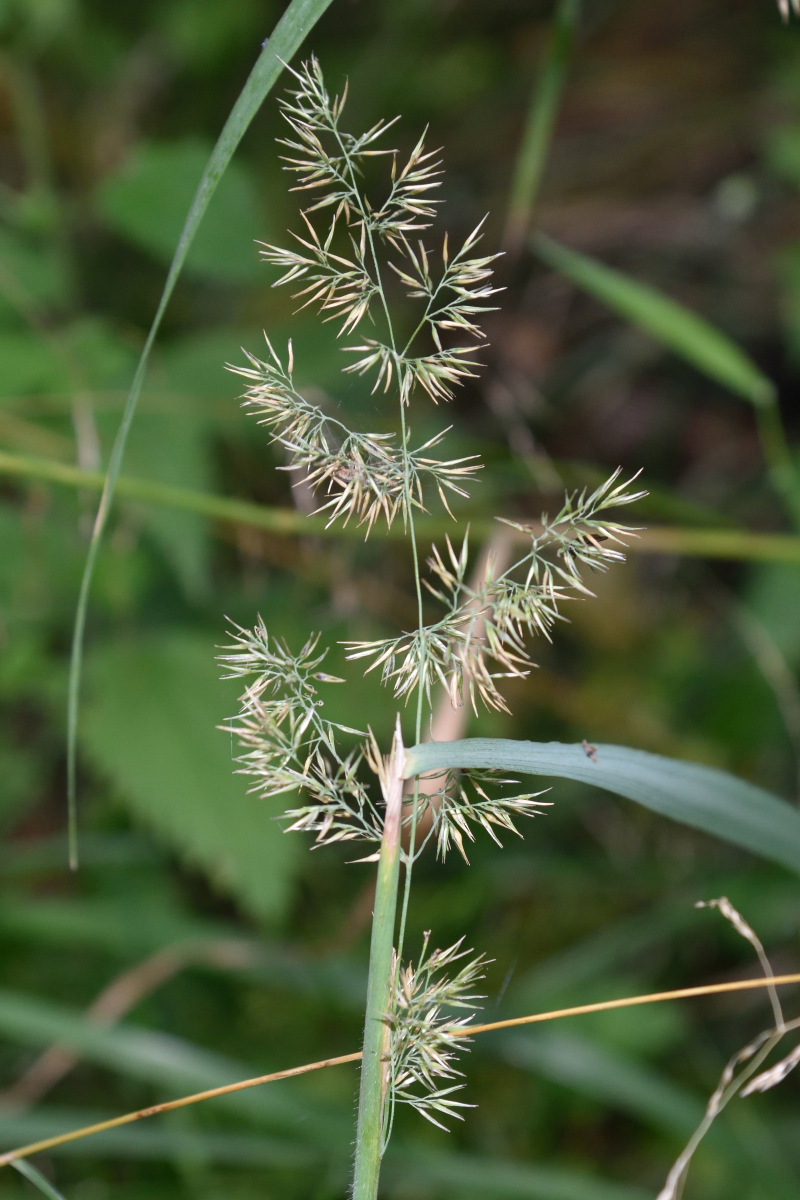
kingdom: Plantae
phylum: Tracheophyta
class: Liliopsida
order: Poales
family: Poaceae
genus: Calamagrostis
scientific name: Calamagrostis epigejos
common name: Wood small-reed
